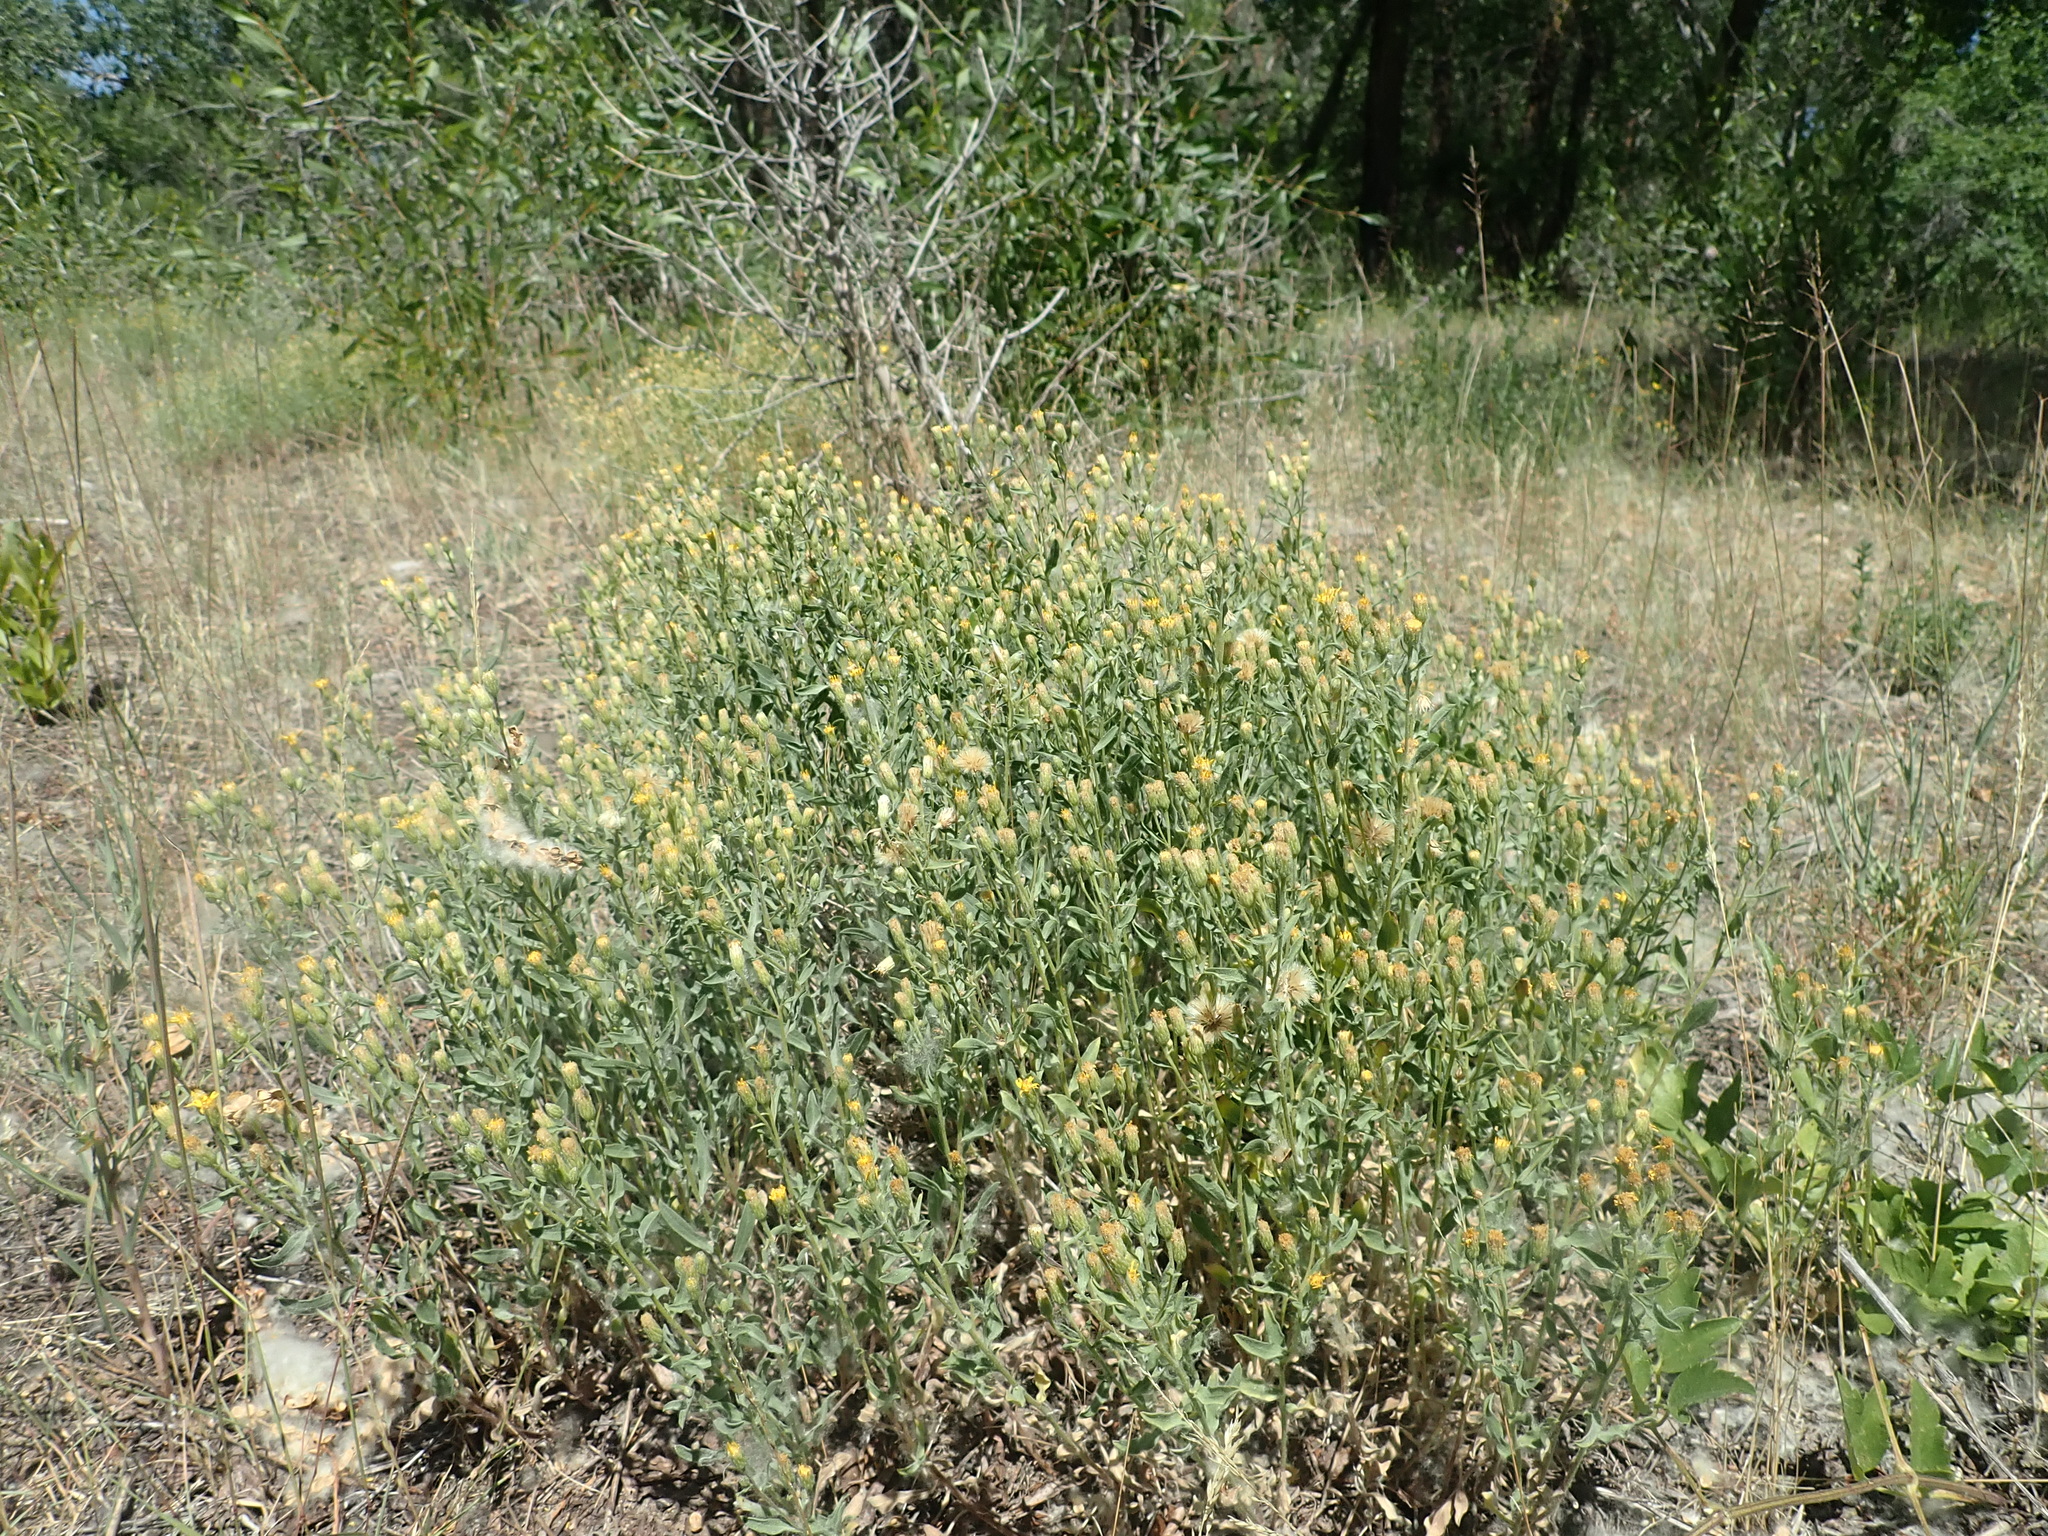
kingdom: Plantae
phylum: Tracheophyta
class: Magnoliopsida
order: Asterales
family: Asteraceae
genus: Heterotheca
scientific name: Heterotheca depressa
